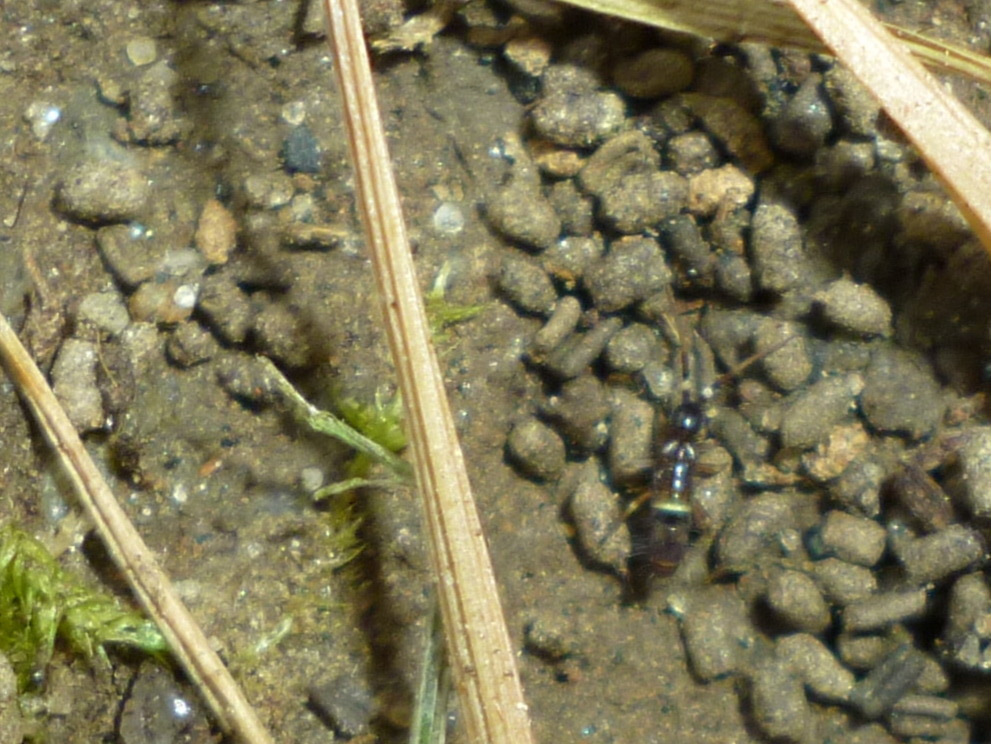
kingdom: Animalia
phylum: Arthropoda
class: Collembola
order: Entomobryomorpha
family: Orchesellidae
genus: Orchesella
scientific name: Orchesella cincta
